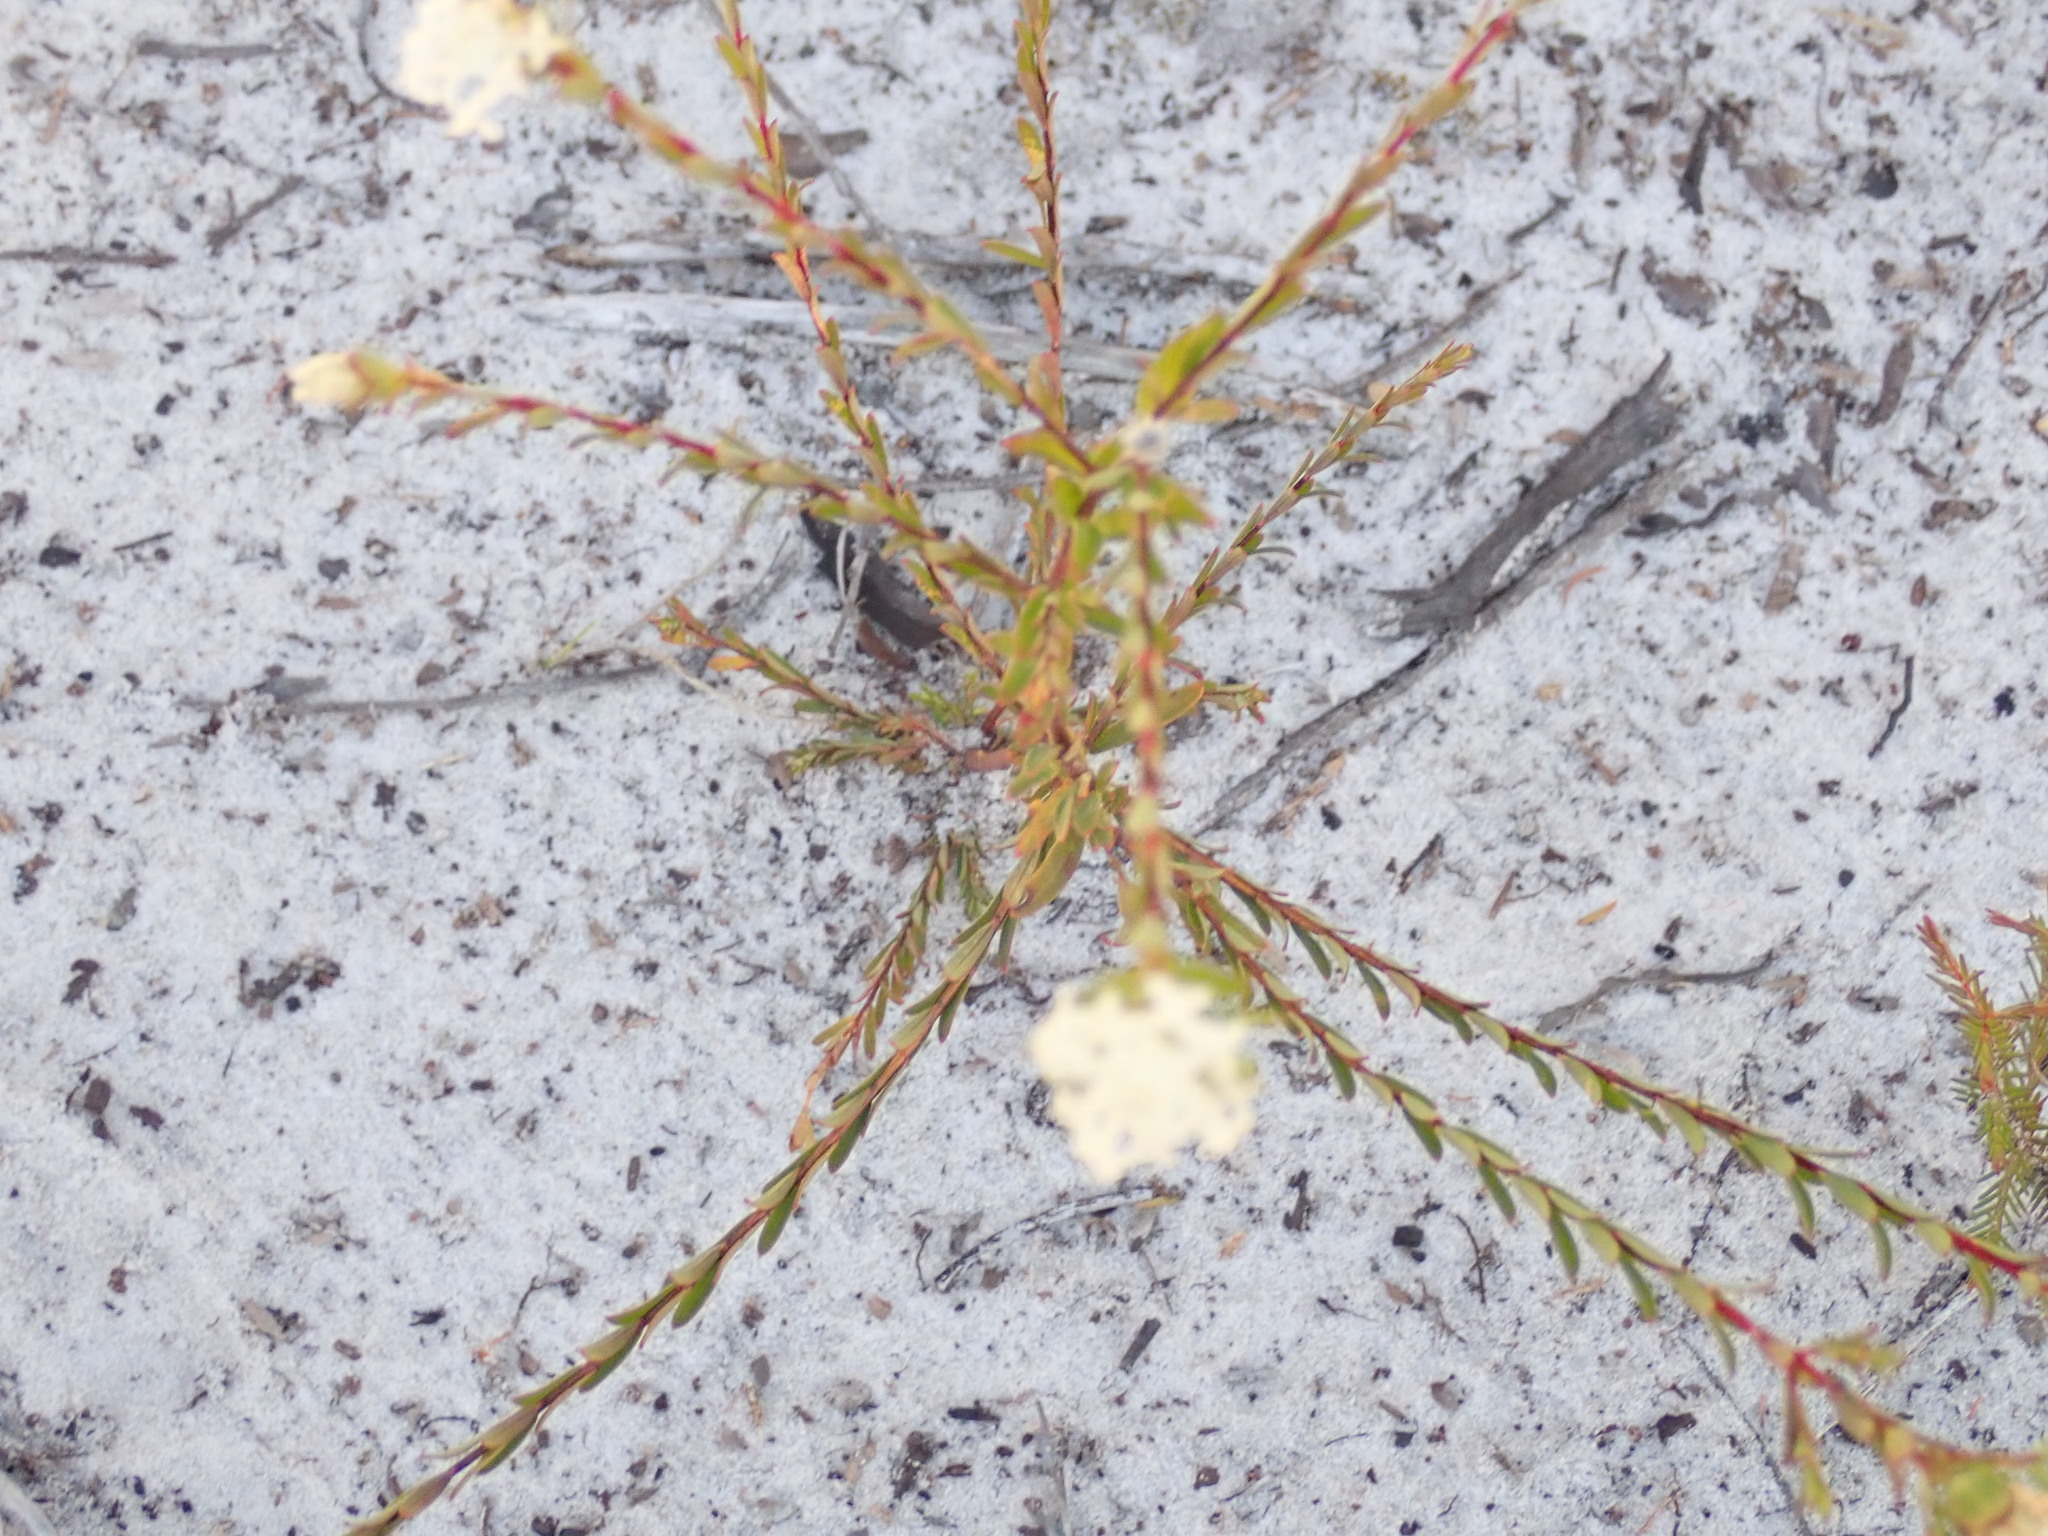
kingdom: Plantae
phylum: Tracheophyta
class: Magnoliopsida
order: Malvales
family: Thymelaeaceae
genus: Pimelea
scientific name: Pimelea linifolia
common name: Queen-of-the-bush
